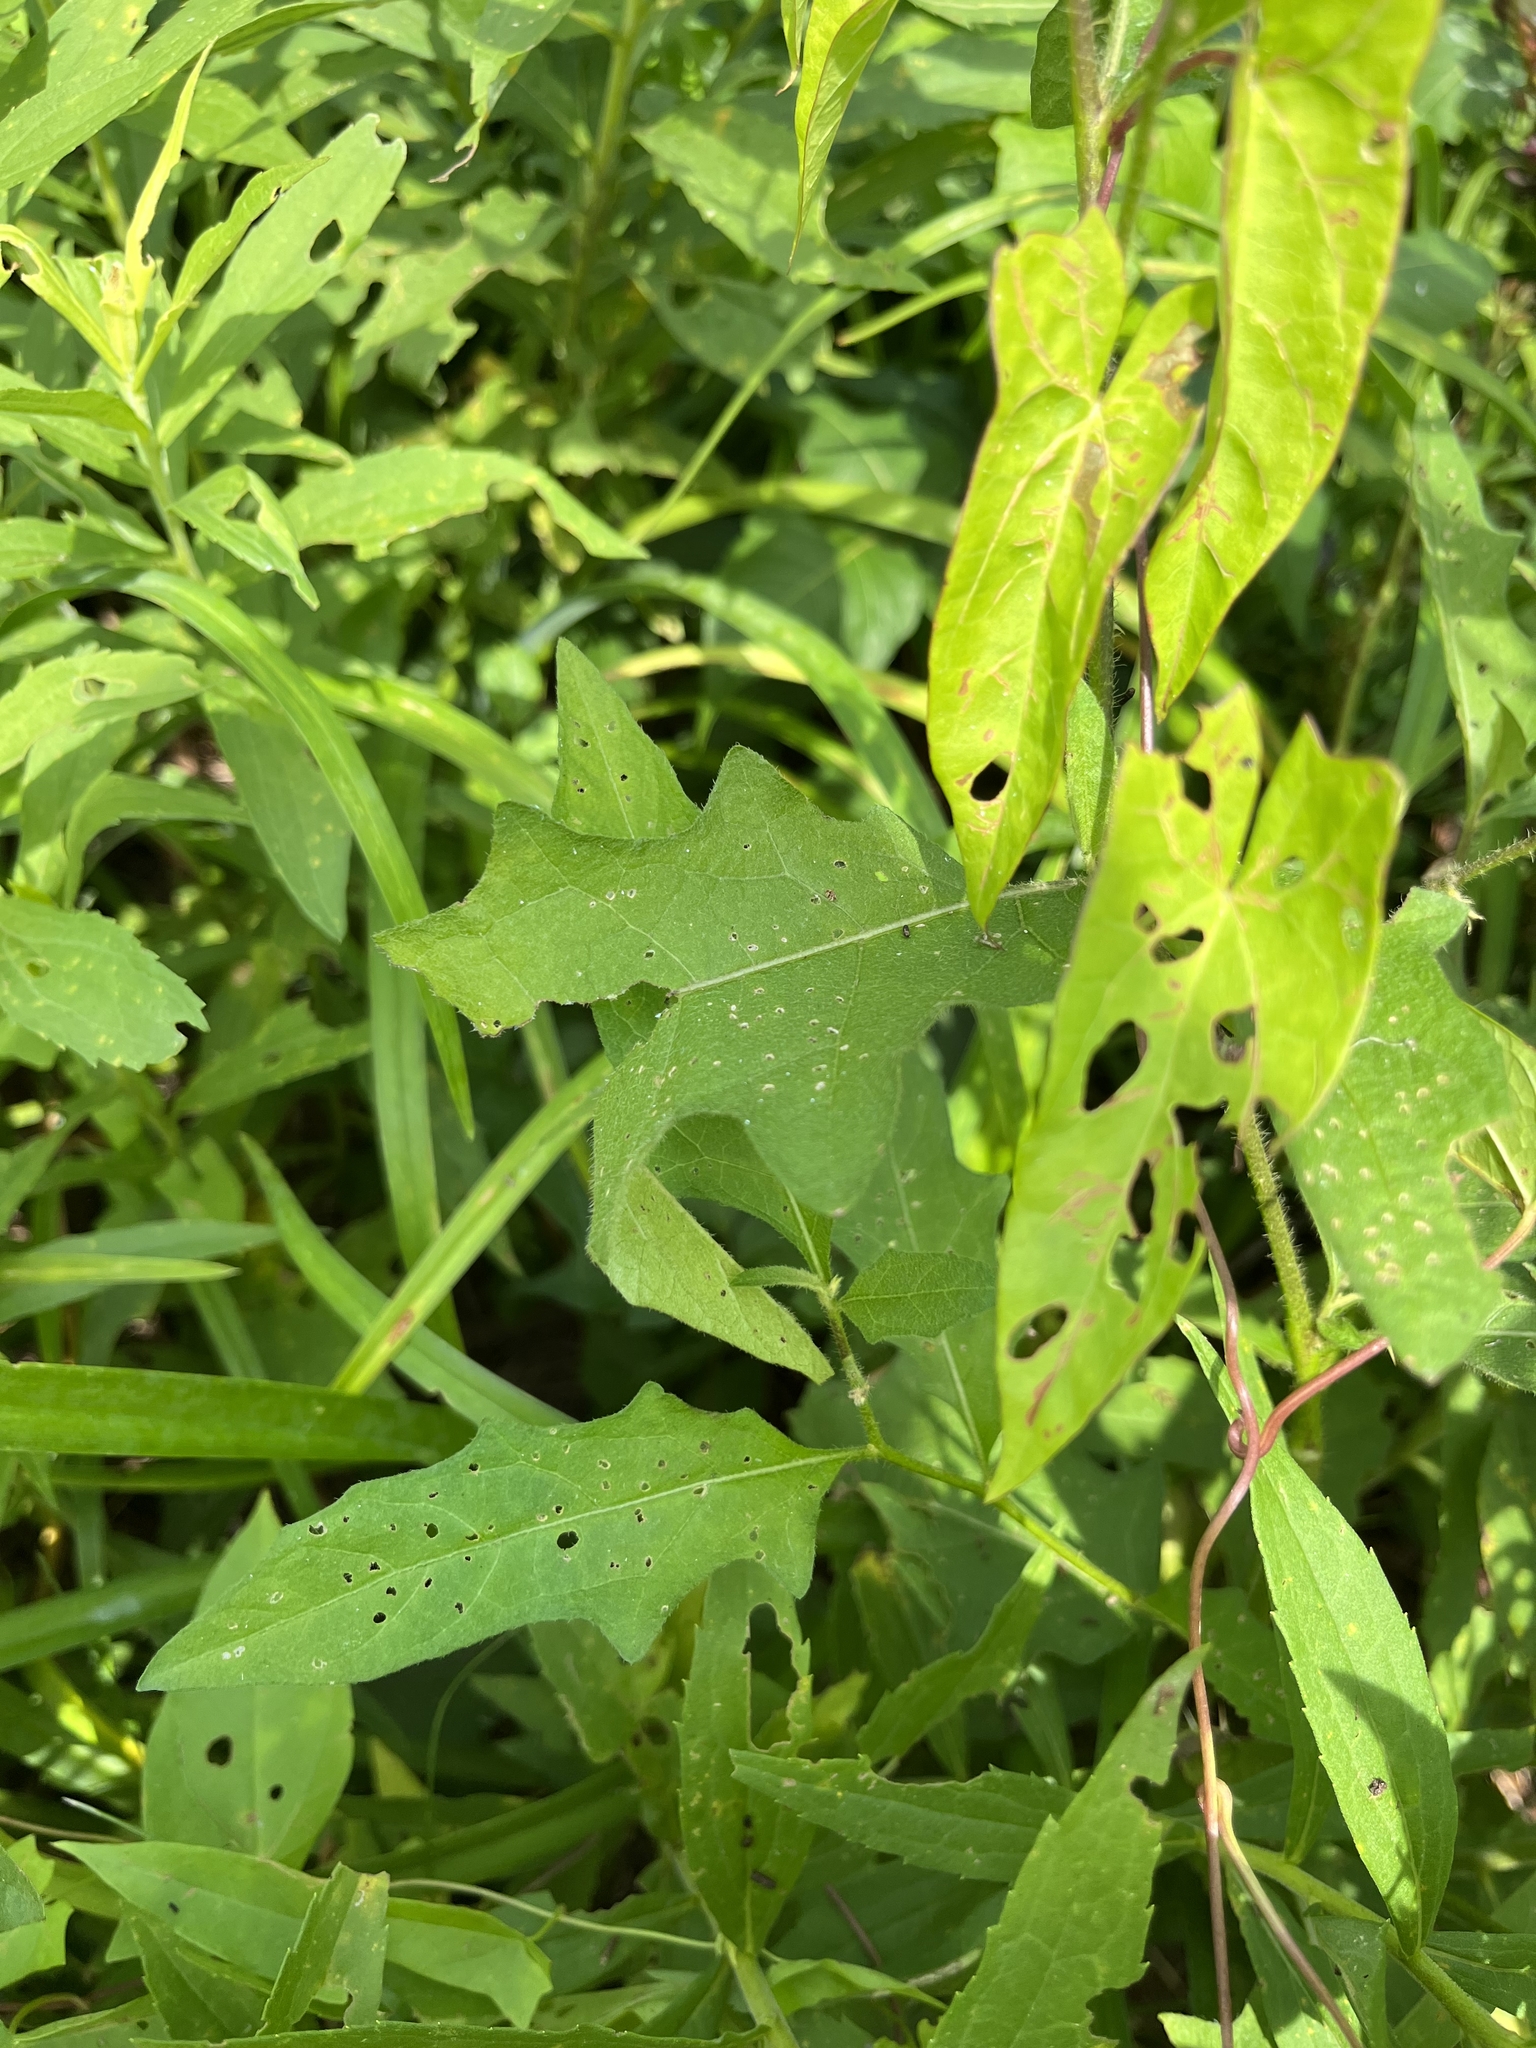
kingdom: Plantae
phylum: Tracheophyta
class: Magnoliopsida
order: Solanales
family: Solanaceae
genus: Solanum
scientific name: Solanum carolinense
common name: Horse-nettle
